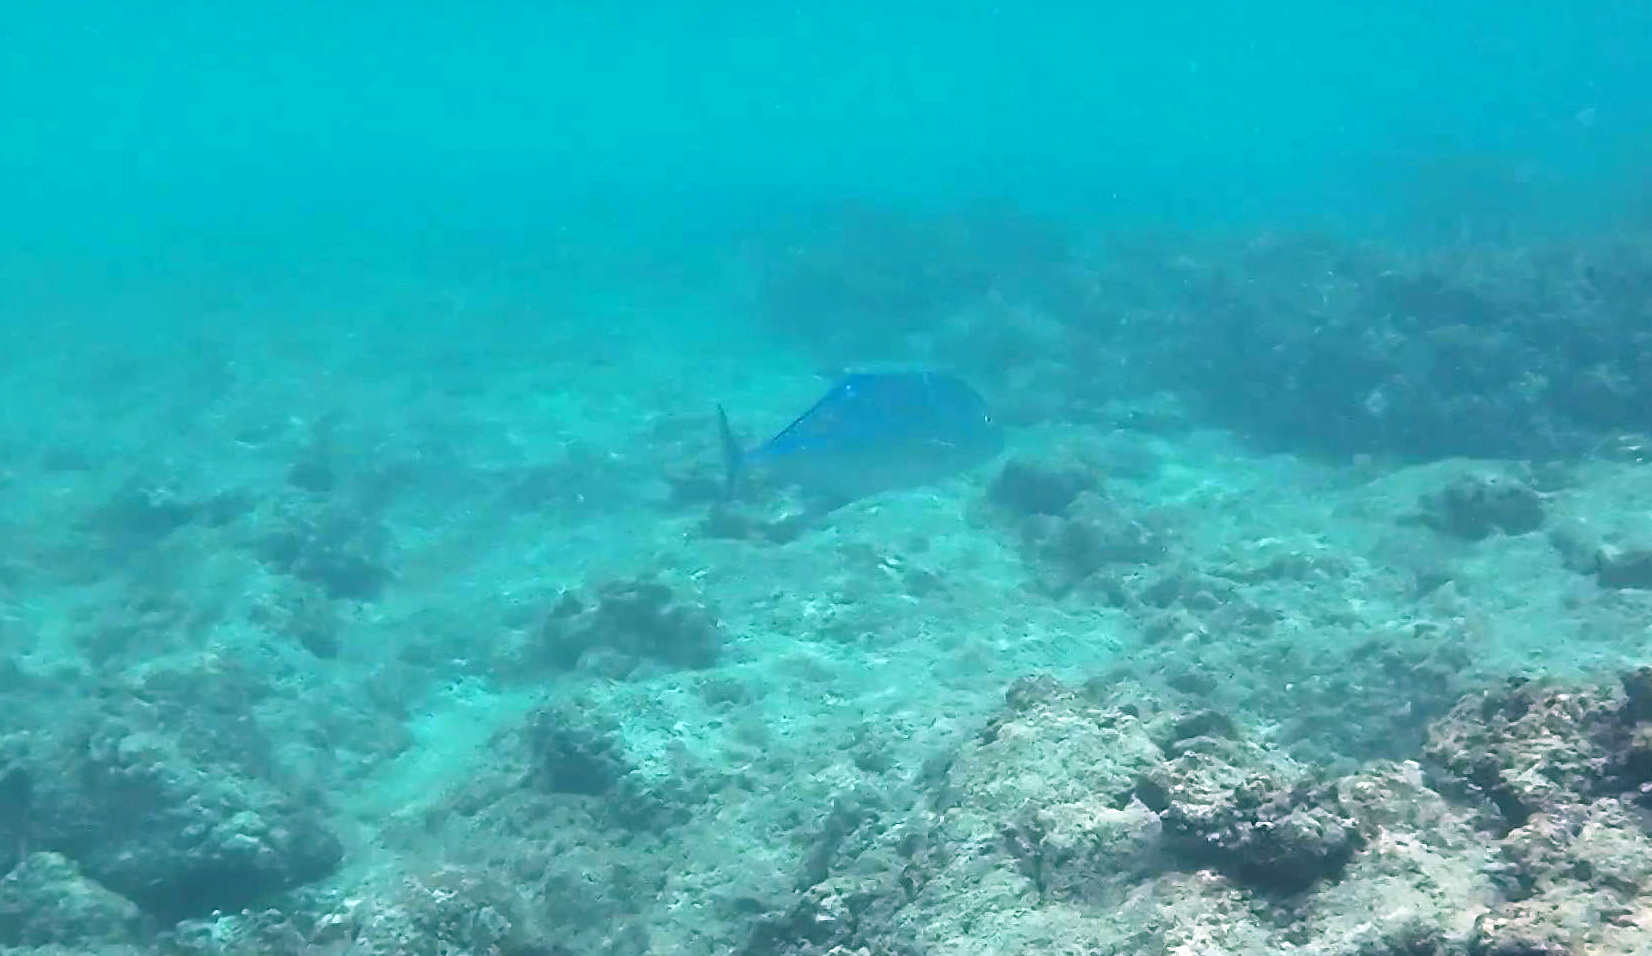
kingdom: Animalia
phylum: Chordata
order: Perciformes
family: Carangidae
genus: Caranx
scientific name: Caranx melampygus
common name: Bluefin trevally
